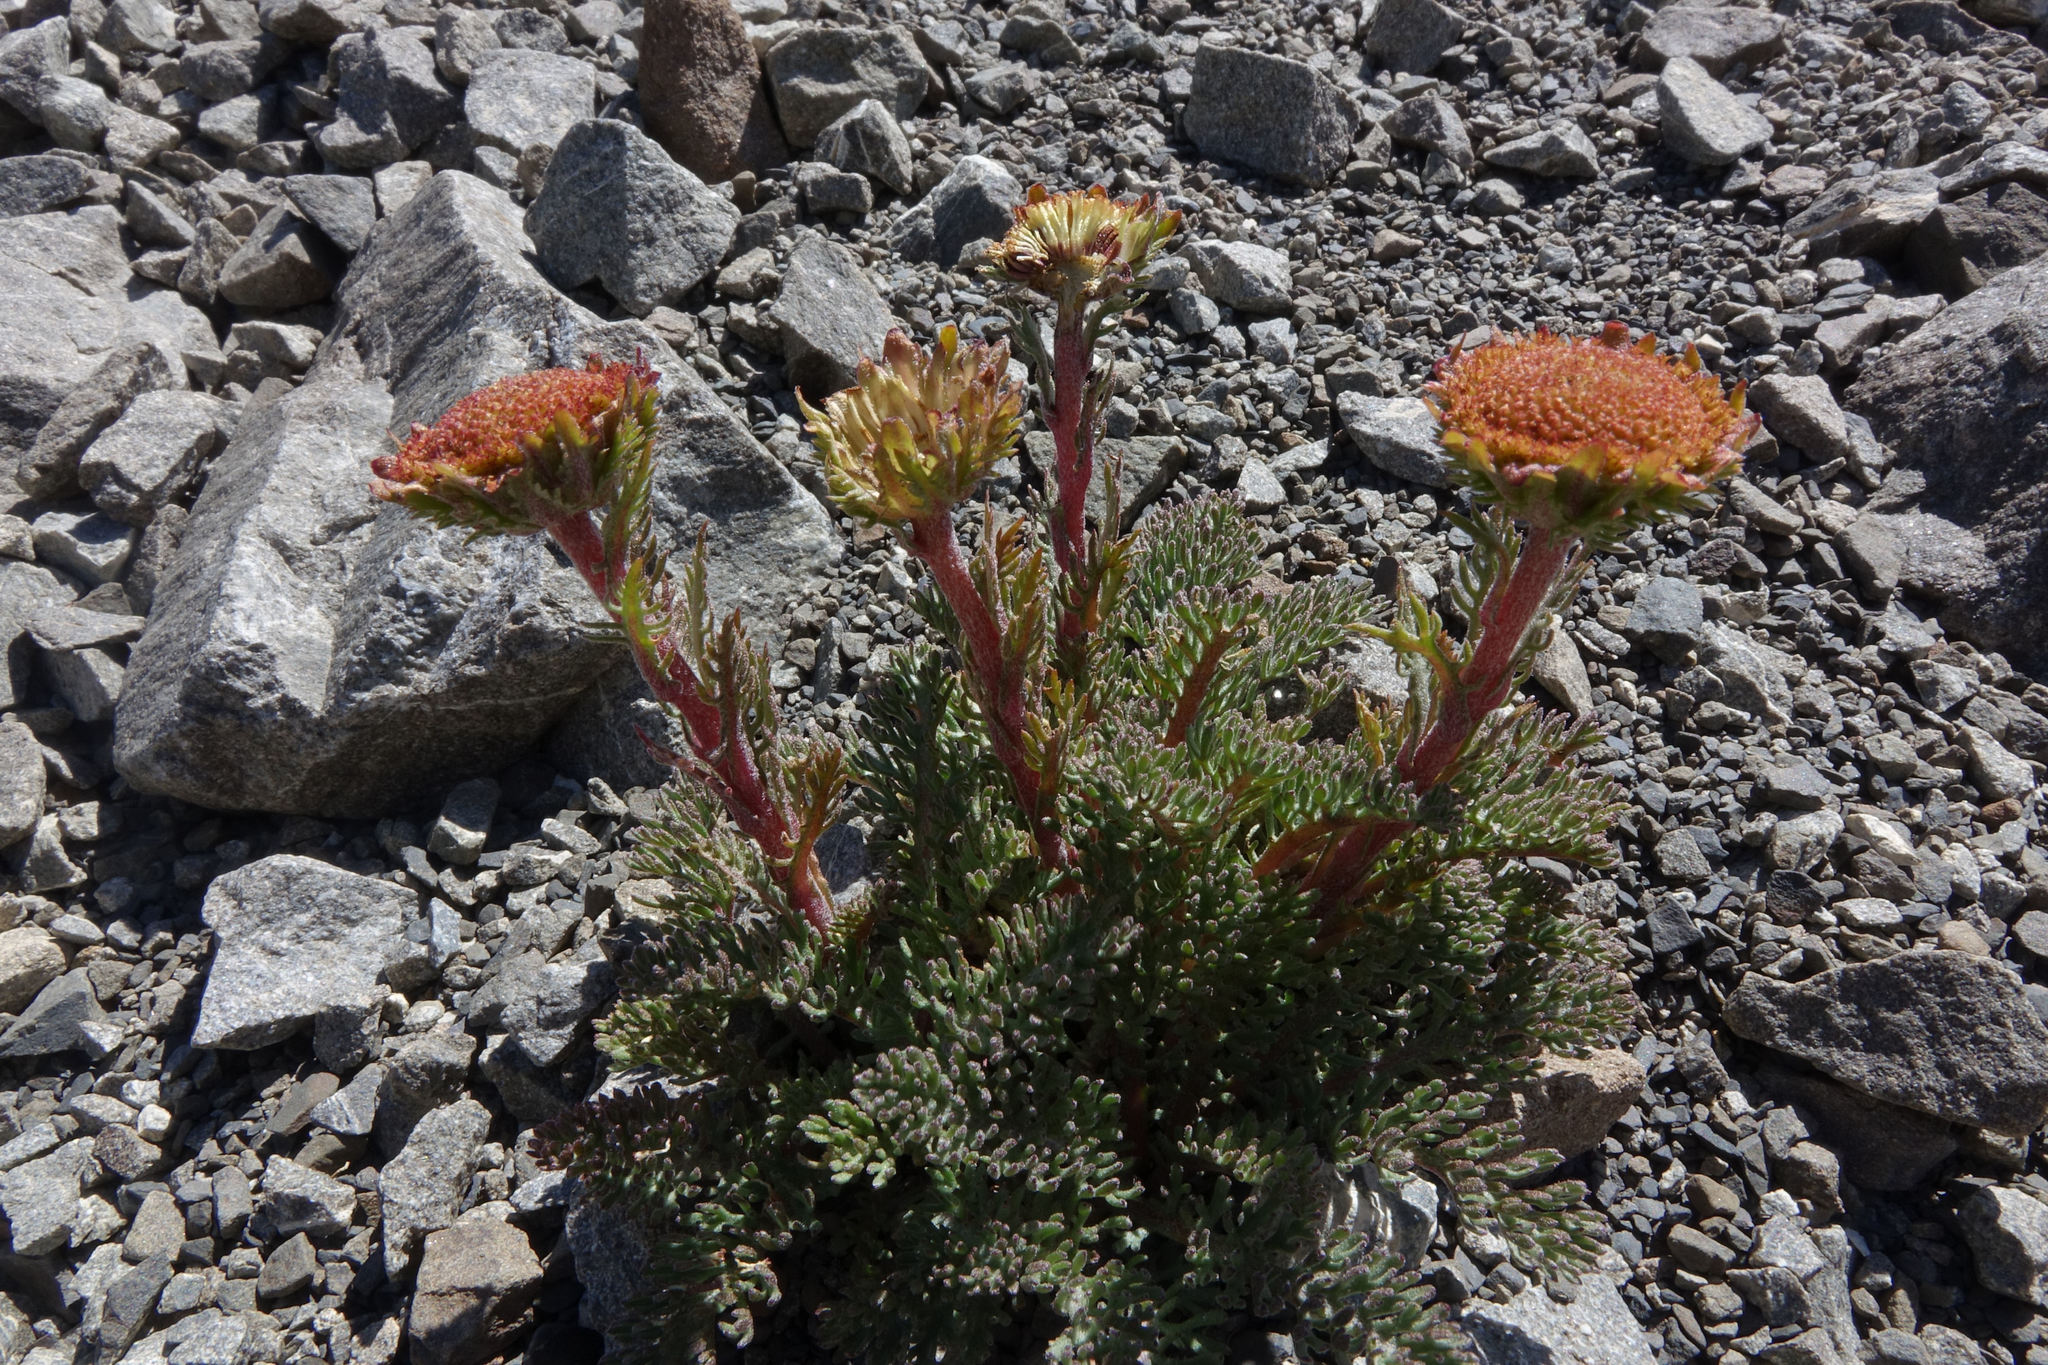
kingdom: Plantae
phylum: Tracheophyta
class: Magnoliopsida
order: Asterales
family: Asteraceae
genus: Leptinella
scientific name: Leptinella dendyi
